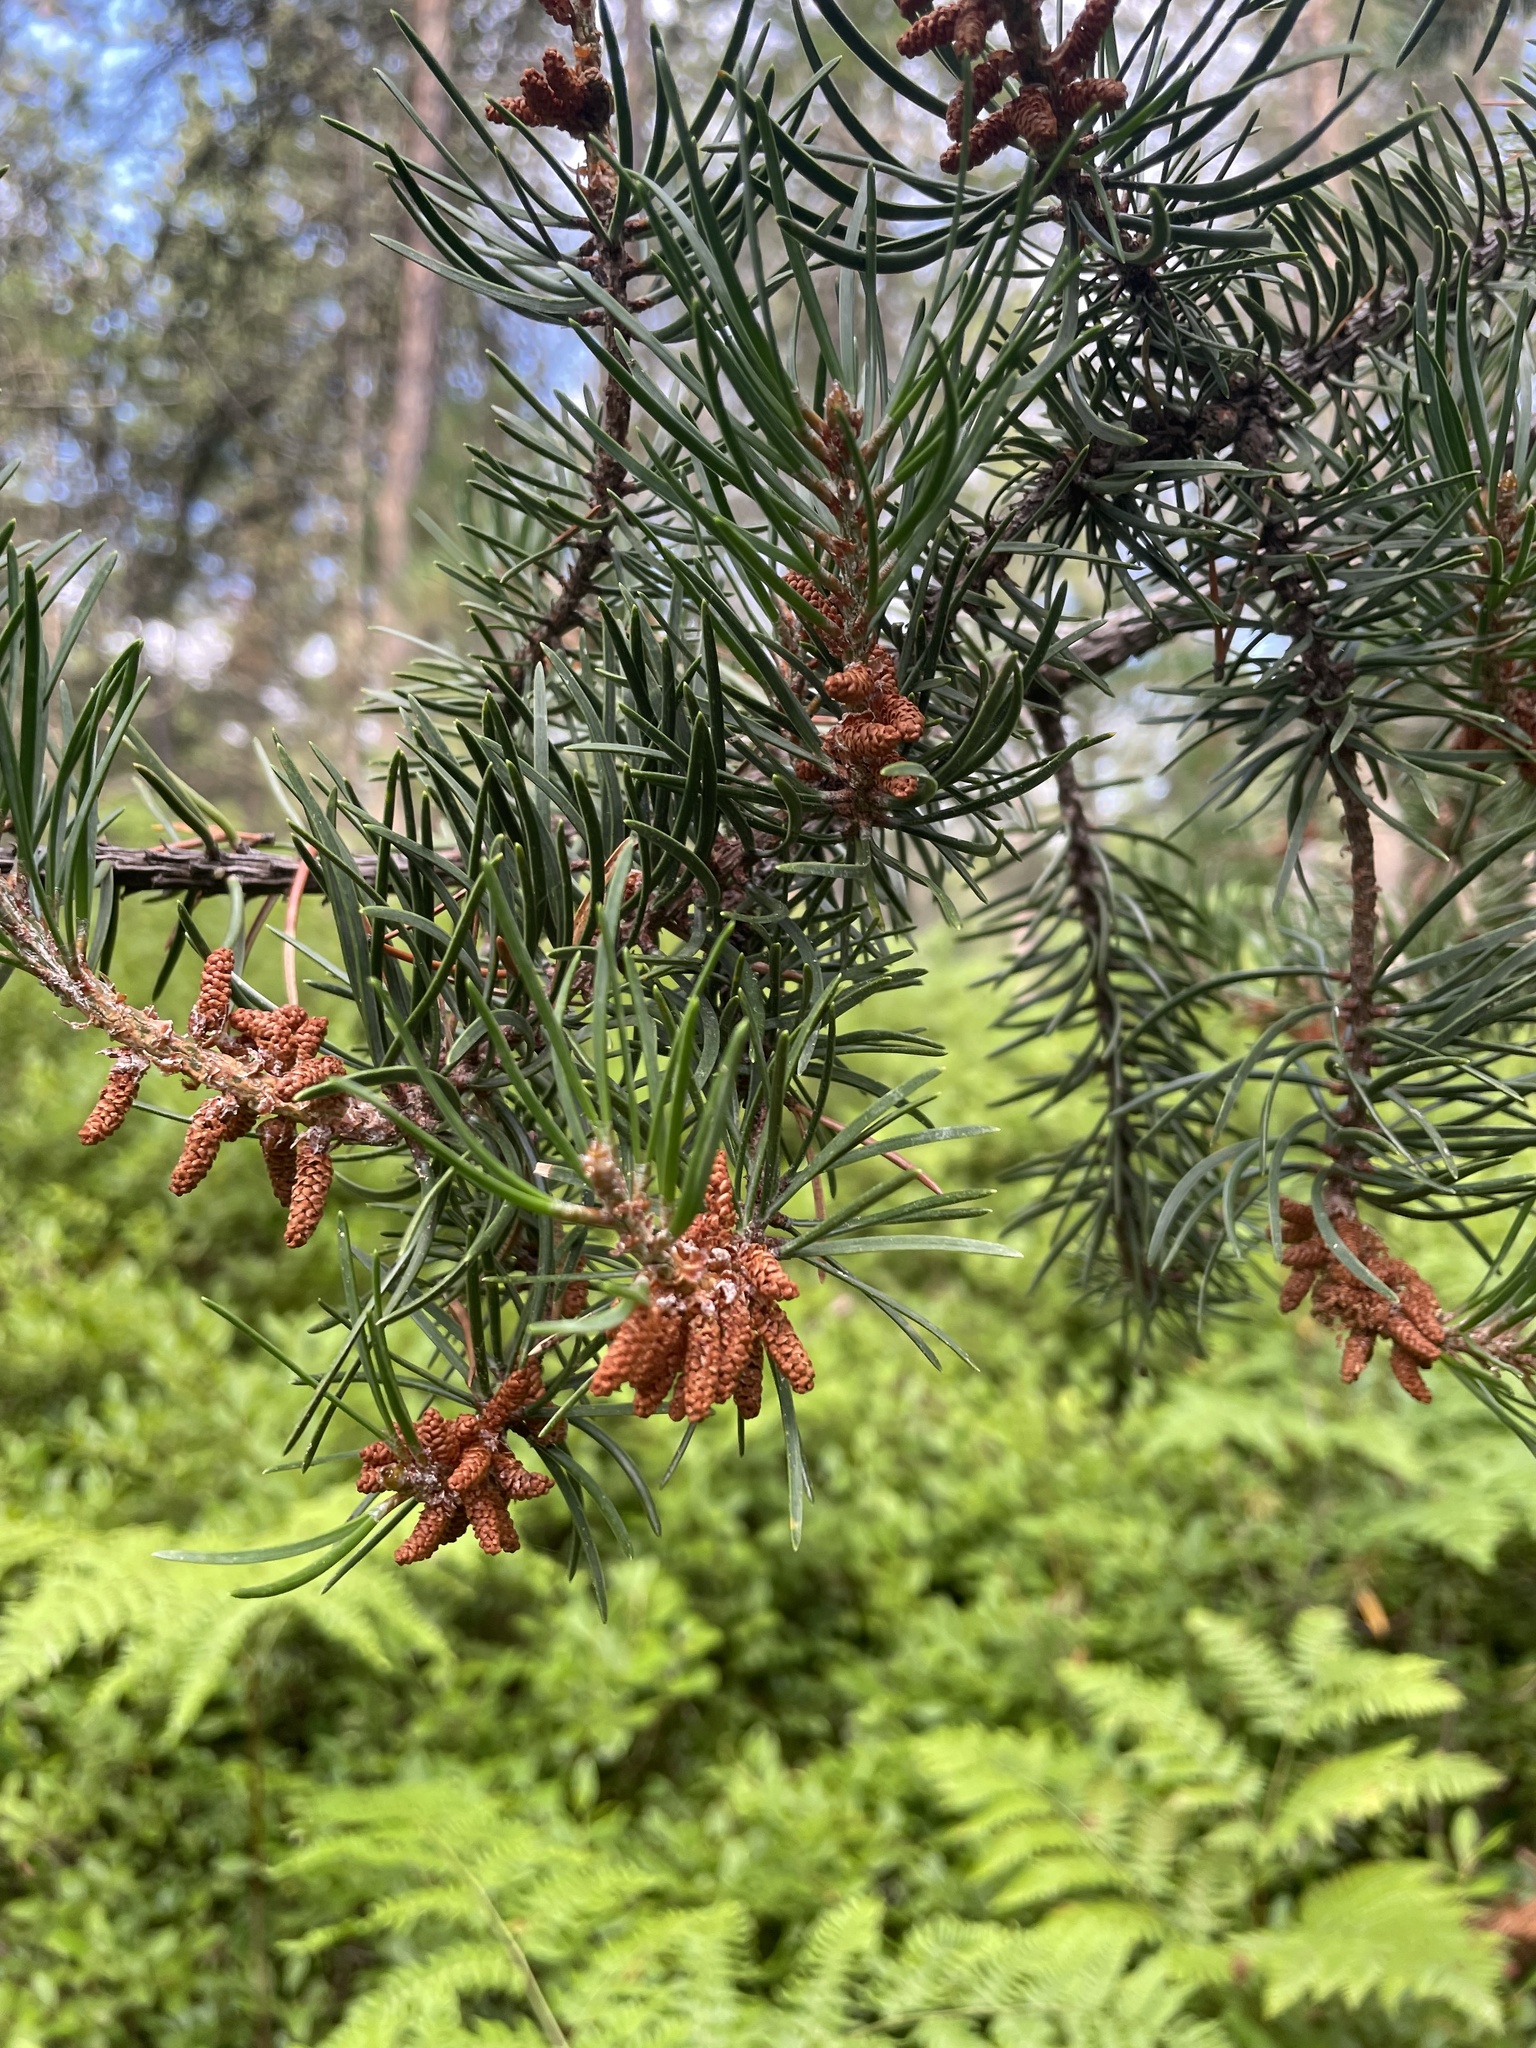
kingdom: Plantae
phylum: Tracheophyta
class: Pinopsida
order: Pinales
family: Pinaceae
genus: Pinus
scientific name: Pinus banksiana
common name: Jack pine
